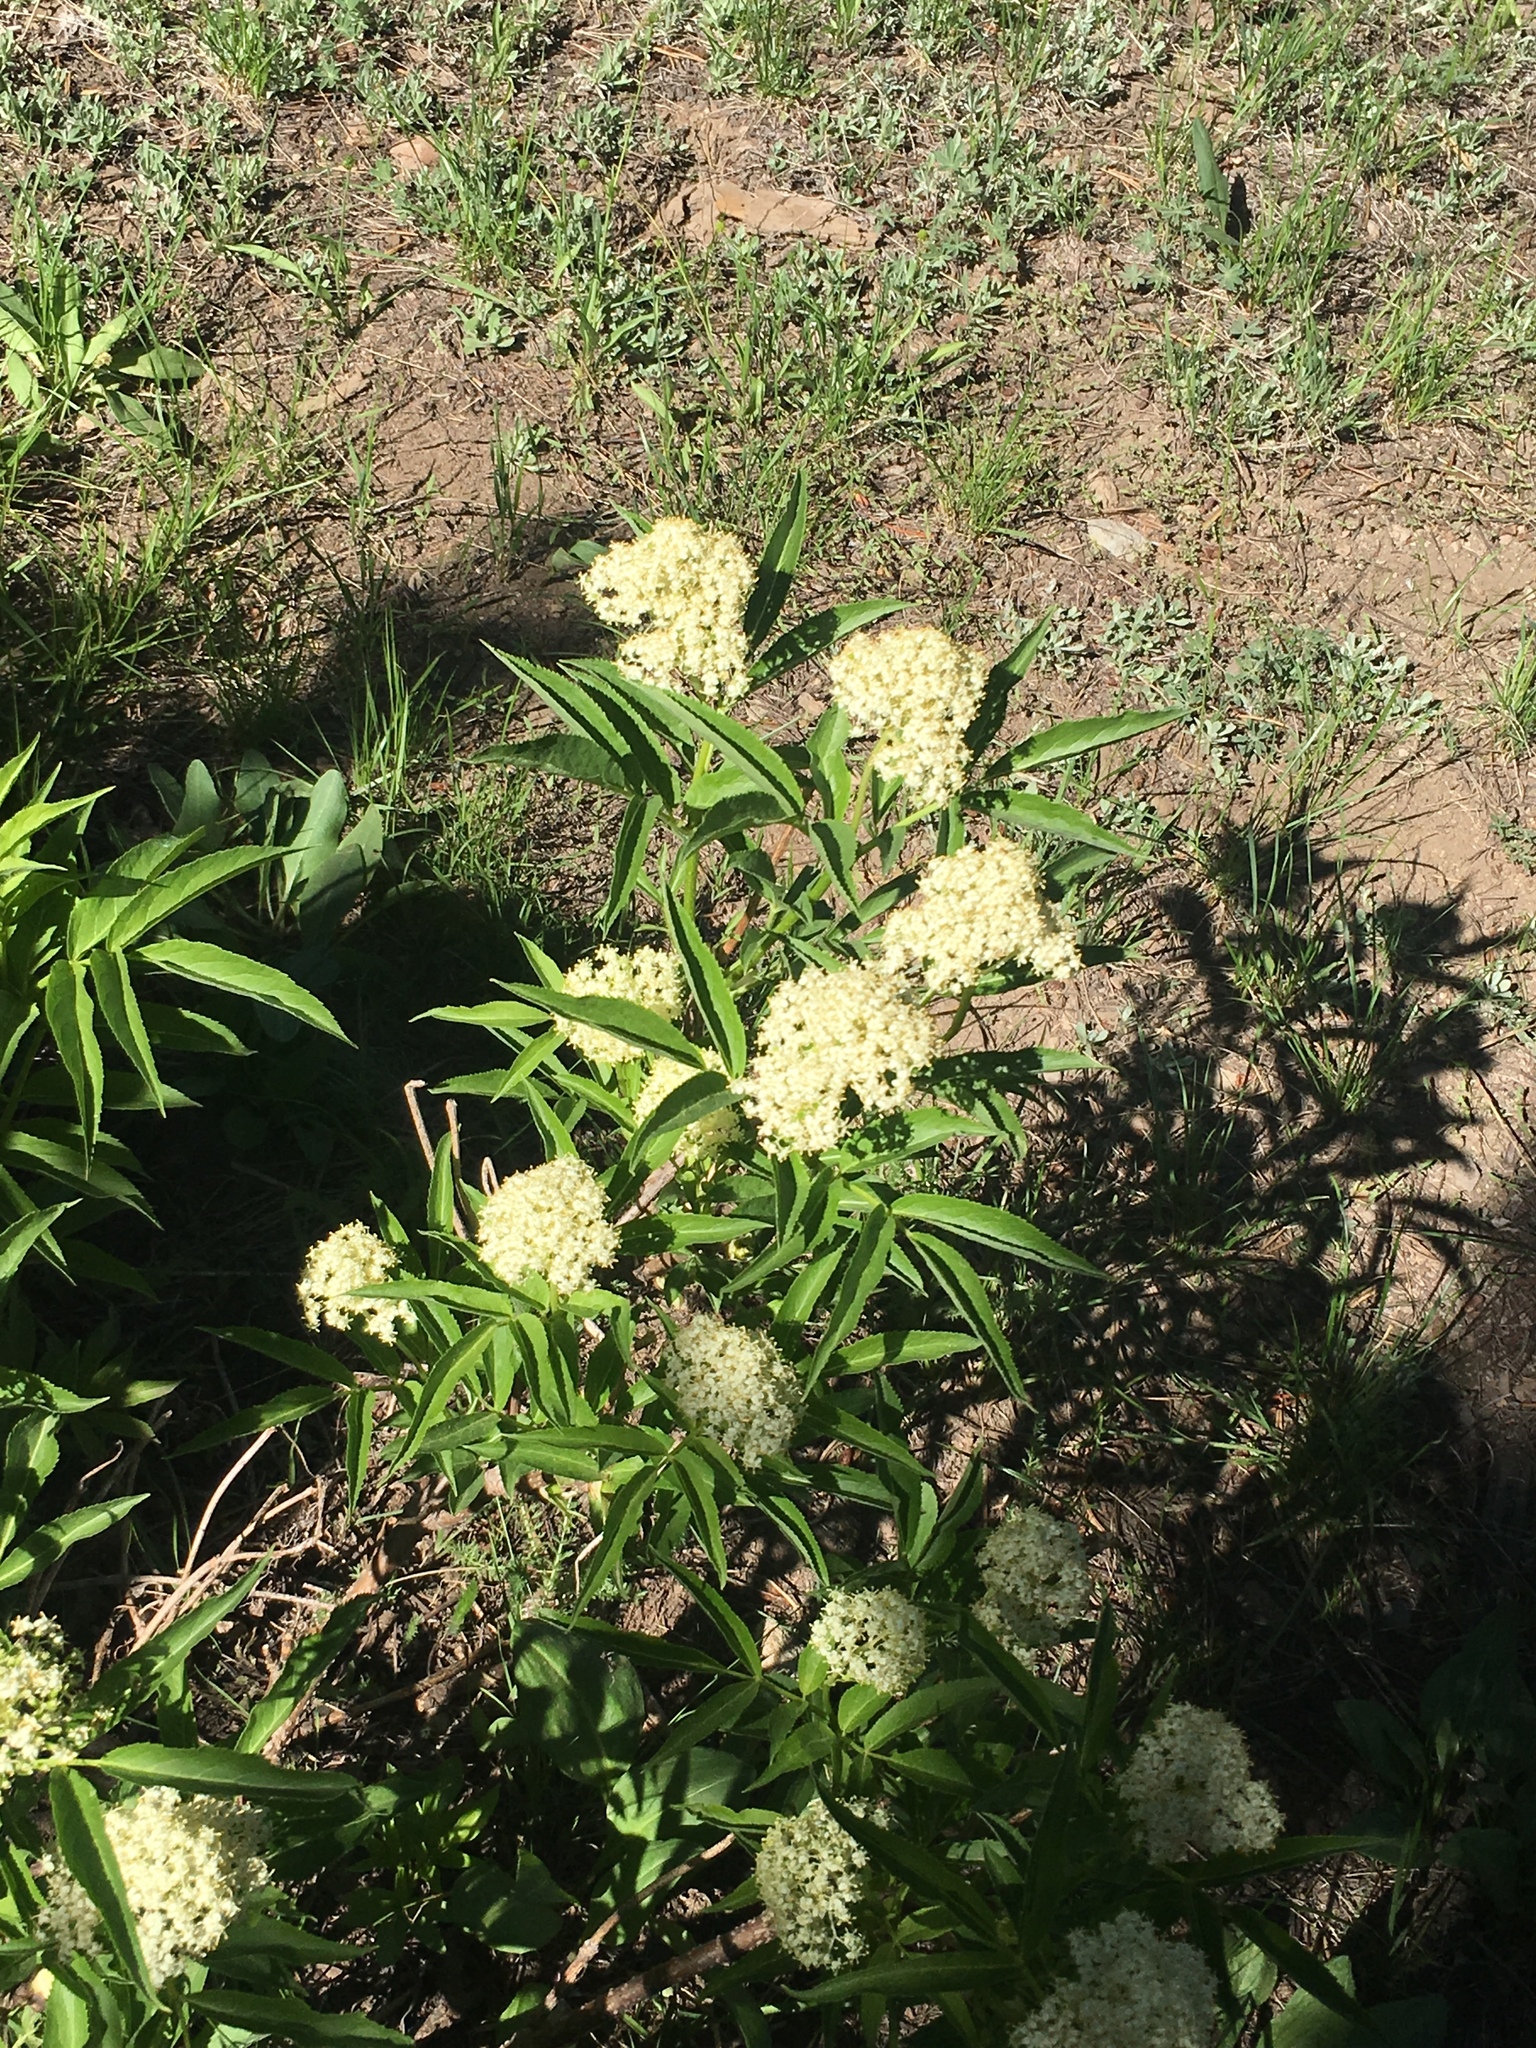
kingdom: Plantae
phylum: Tracheophyta
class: Magnoliopsida
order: Dipsacales
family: Viburnaceae
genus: Sambucus
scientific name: Sambucus racemosa
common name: Red-berried elder
